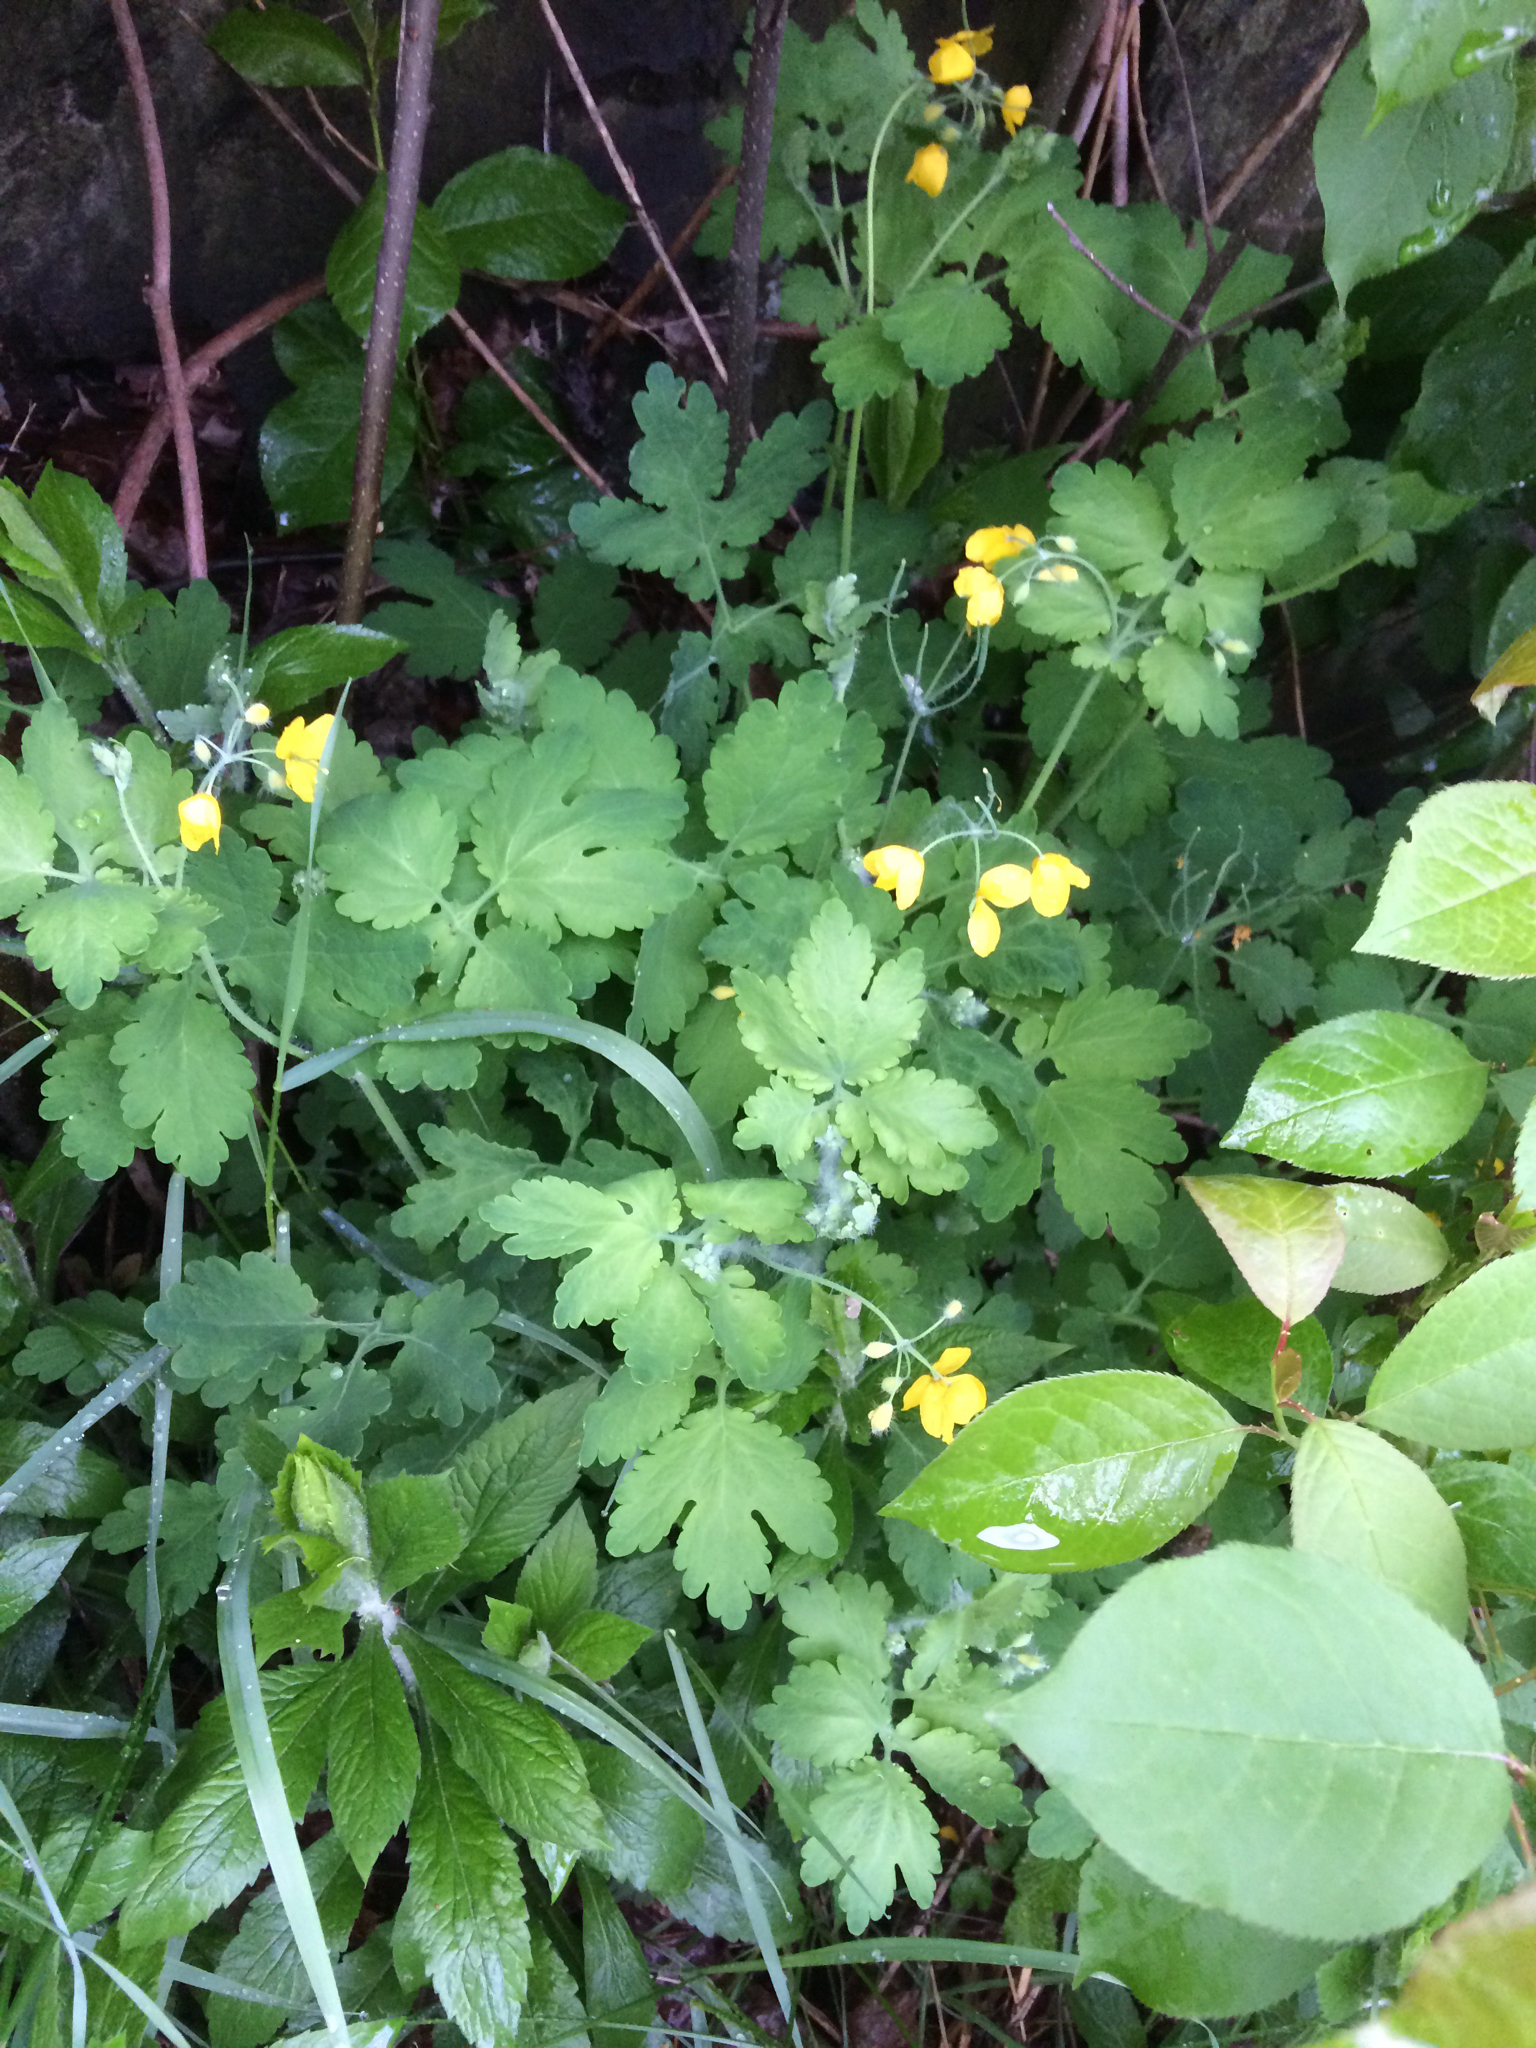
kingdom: Plantae
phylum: Tracheophyta
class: Magnoliopsida
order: Ranunculales
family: Papaveraceae
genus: Chelidonium
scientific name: Chelidonium majus
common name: Greater celandine
